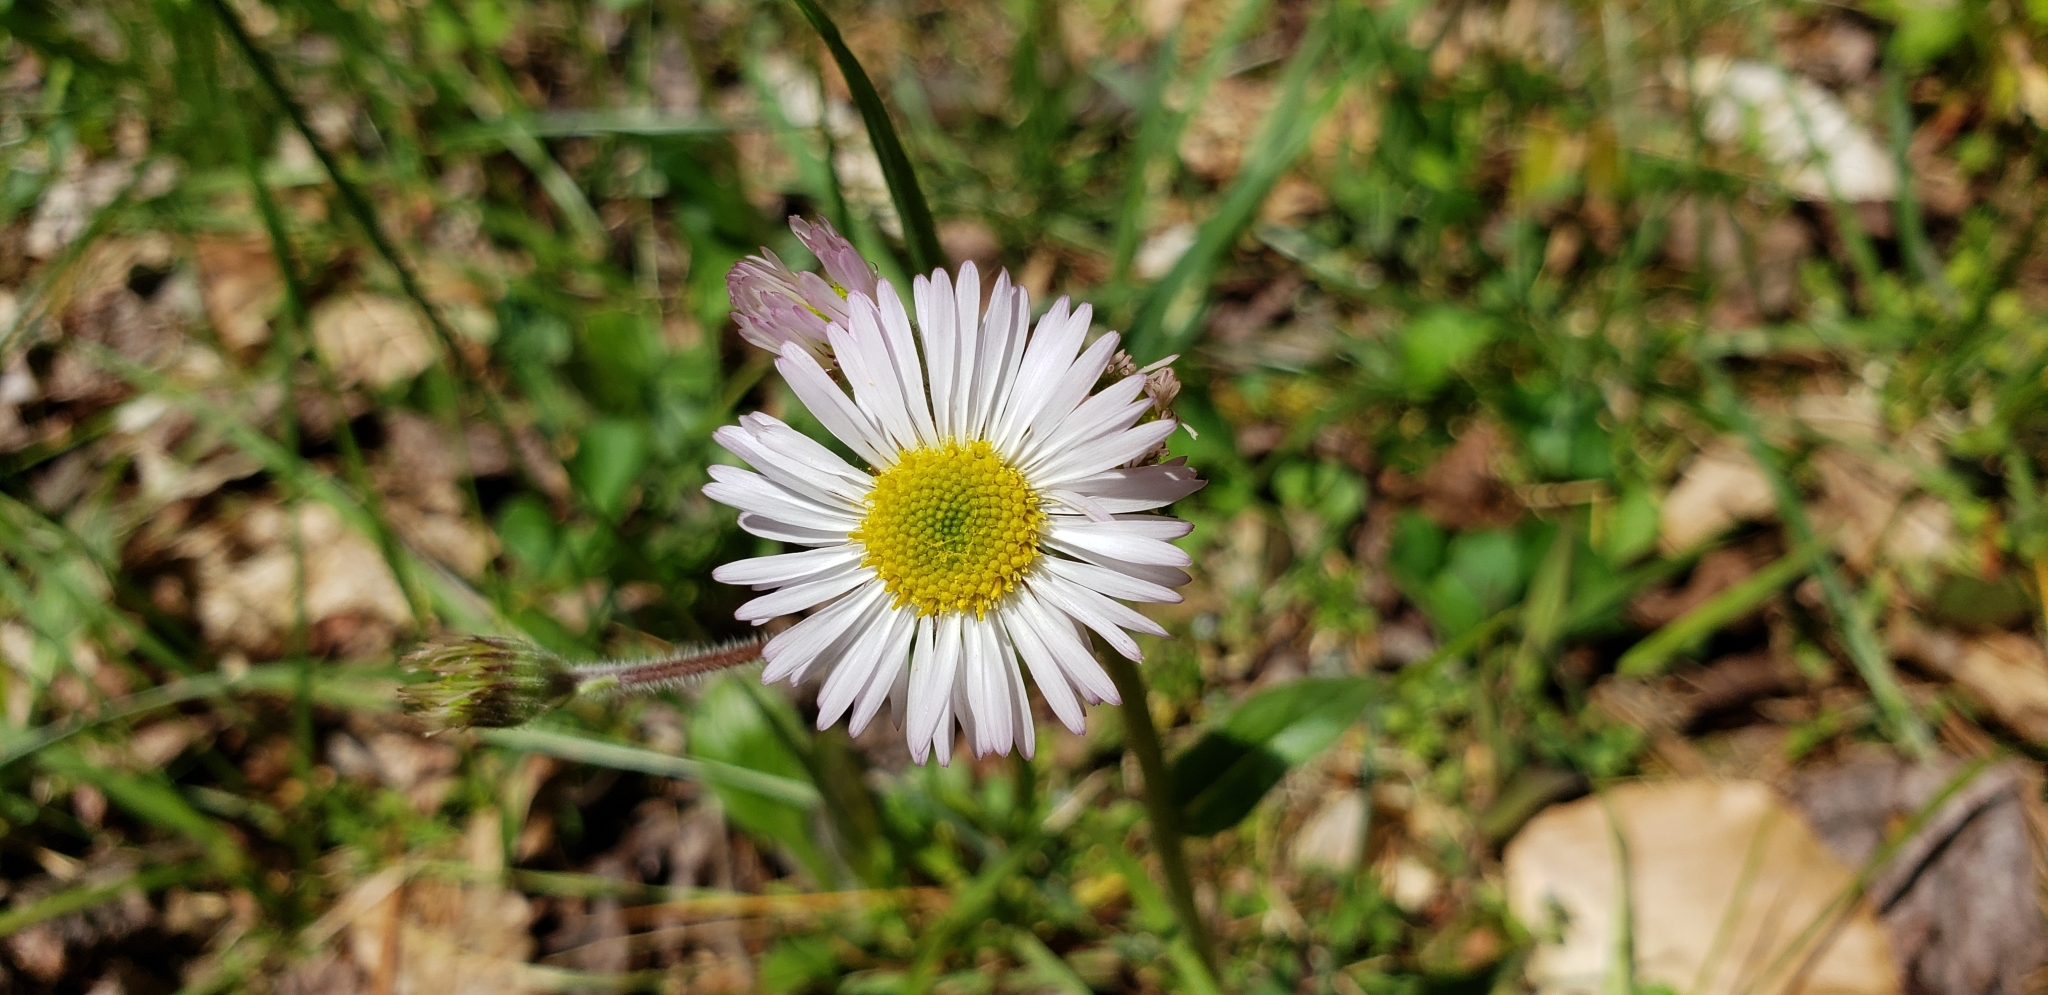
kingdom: Plantae
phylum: Tracheophyta
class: Magnoliopsida
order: Asterales
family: Asteraceae
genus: Erigeron
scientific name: Erigeron pulchellus
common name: Hairy fleabane
